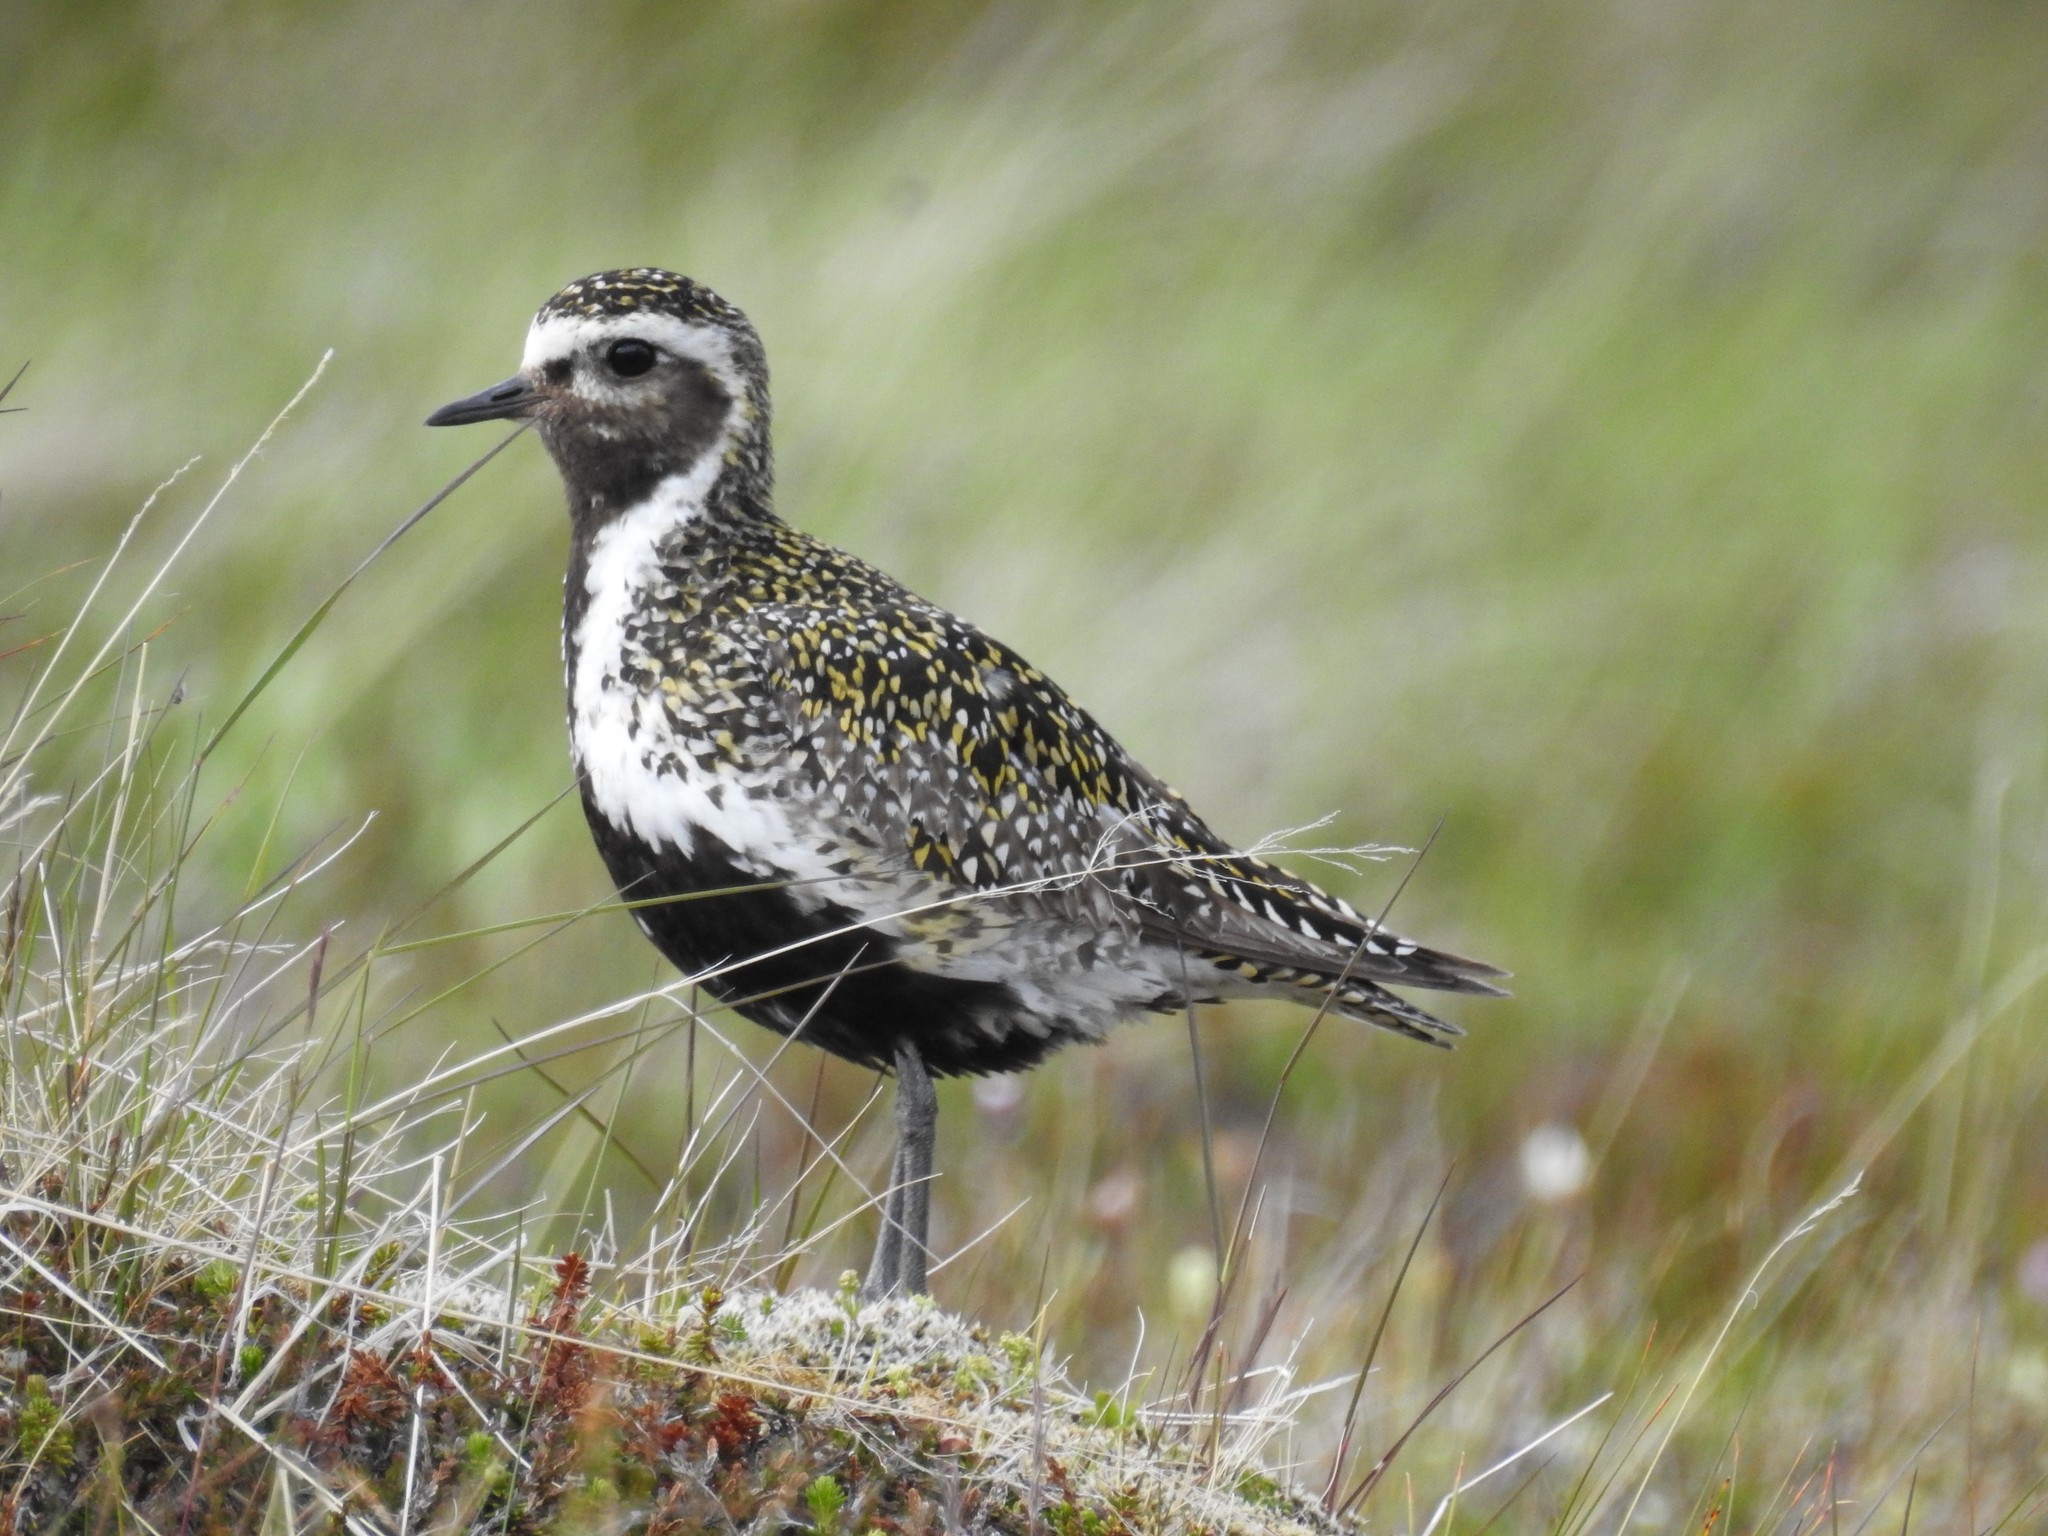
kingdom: Animalia
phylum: Chordata
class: Aves
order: Charadriiformes
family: Charadriidae
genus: Pluvialis
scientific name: Pluvialis apricaria
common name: European golden plover
